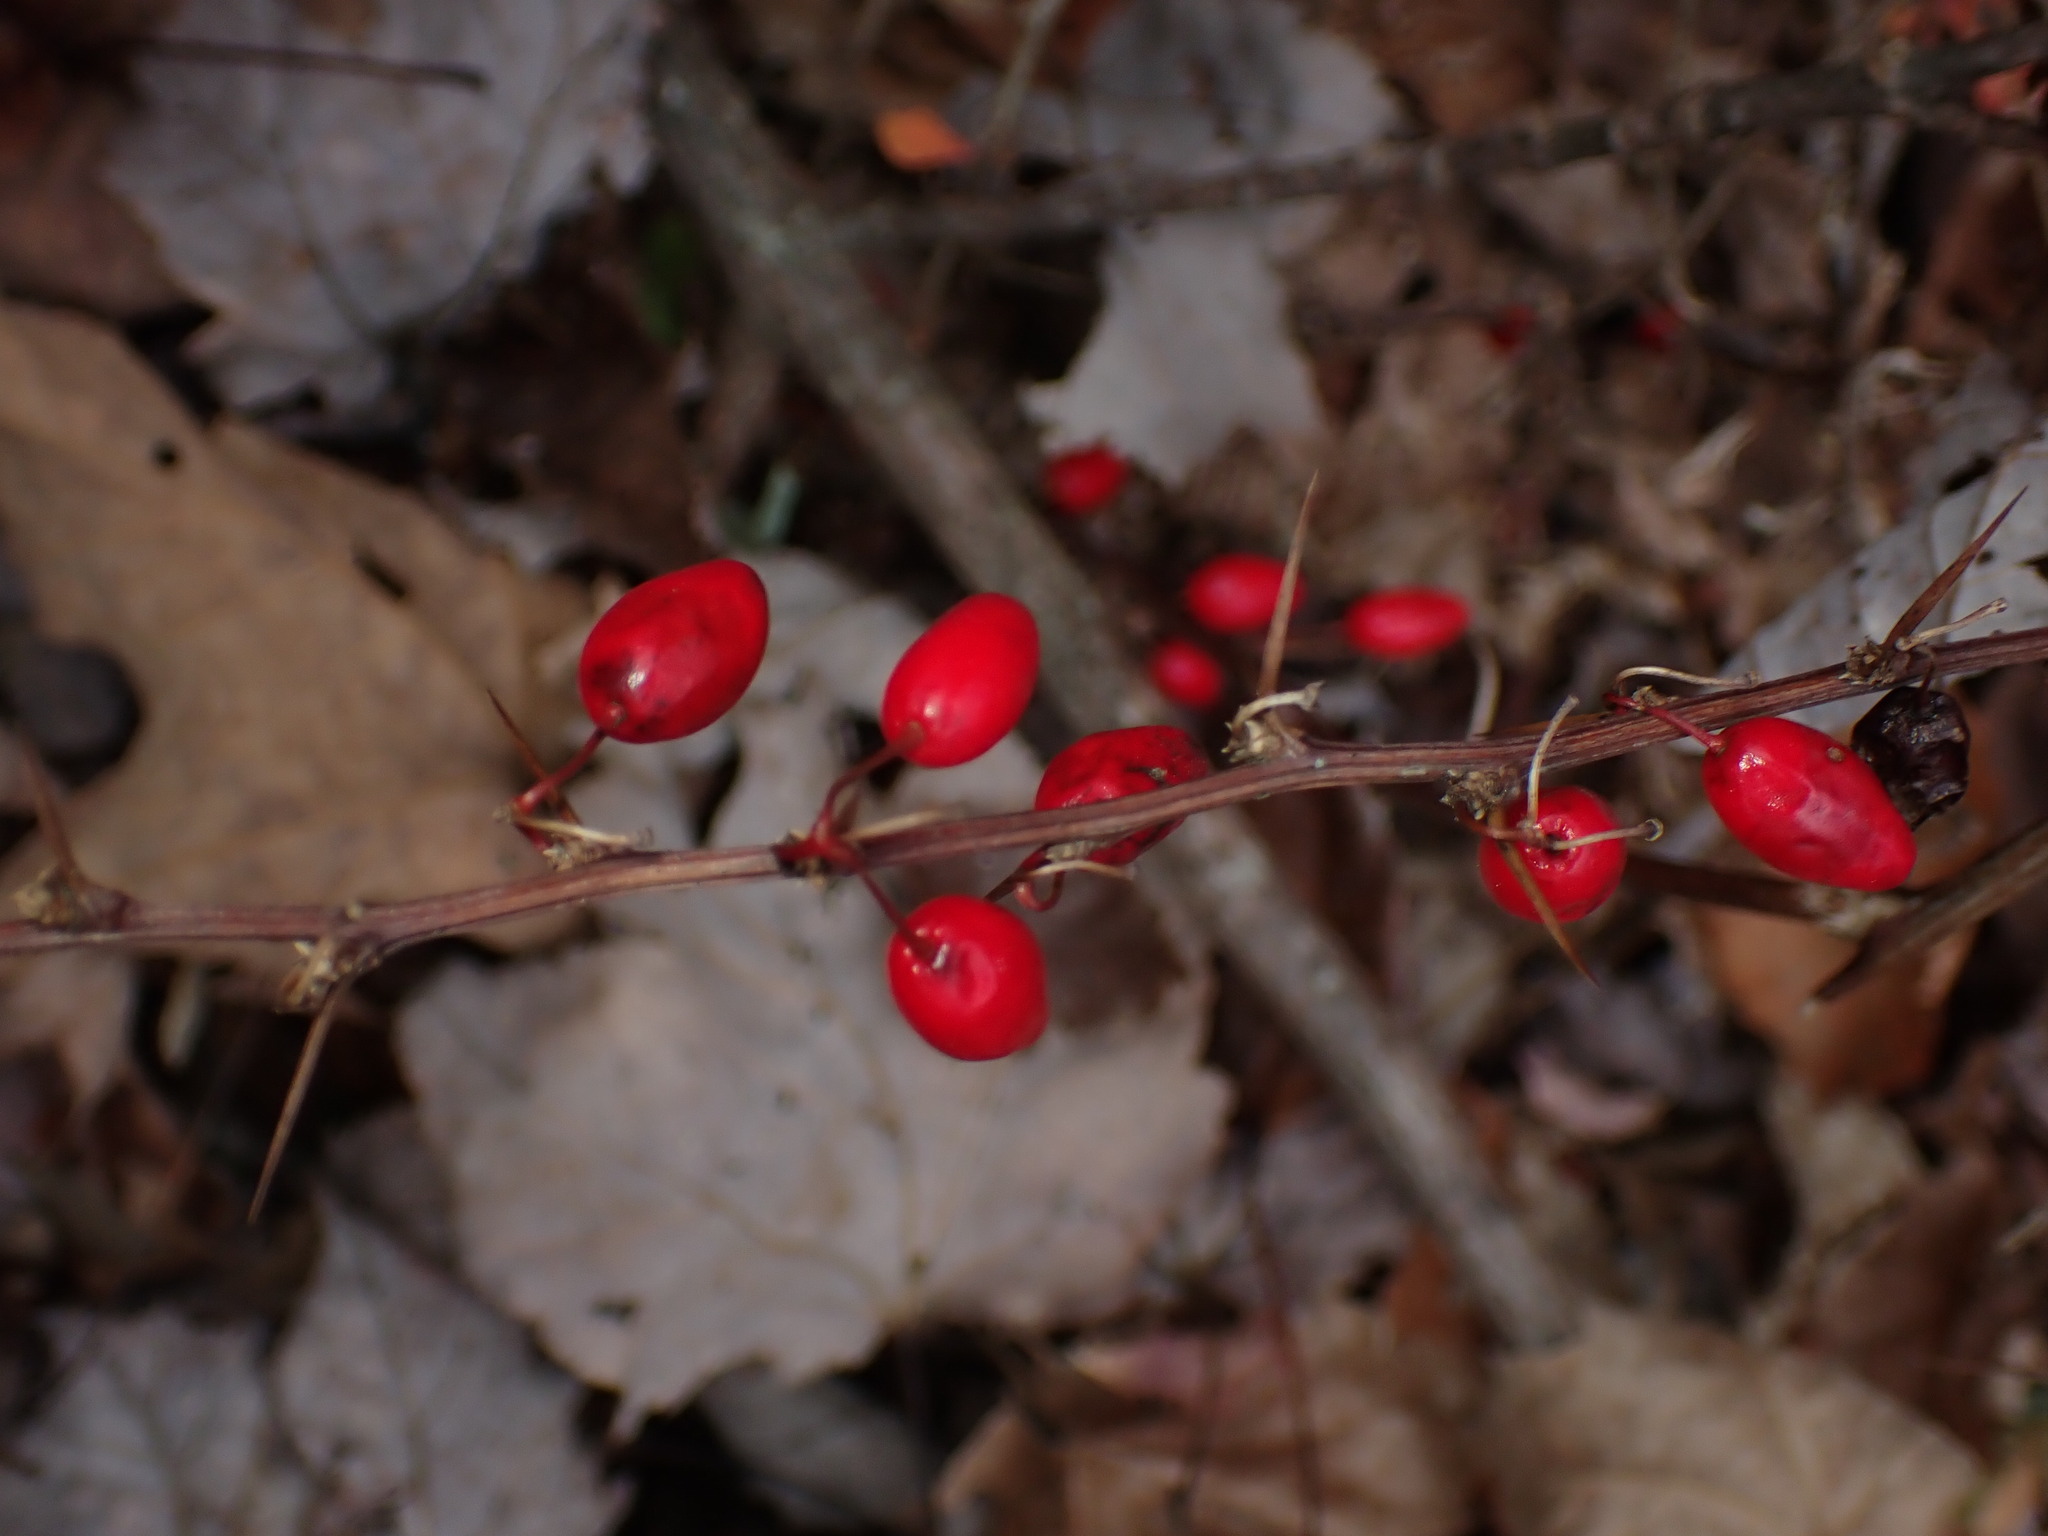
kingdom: Plantae
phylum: Tracheophyta
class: Magnoliopsida
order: Ranunculales
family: Berberidaceae
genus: Berberis
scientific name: Berberis thunbergii
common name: Japanese barberry
